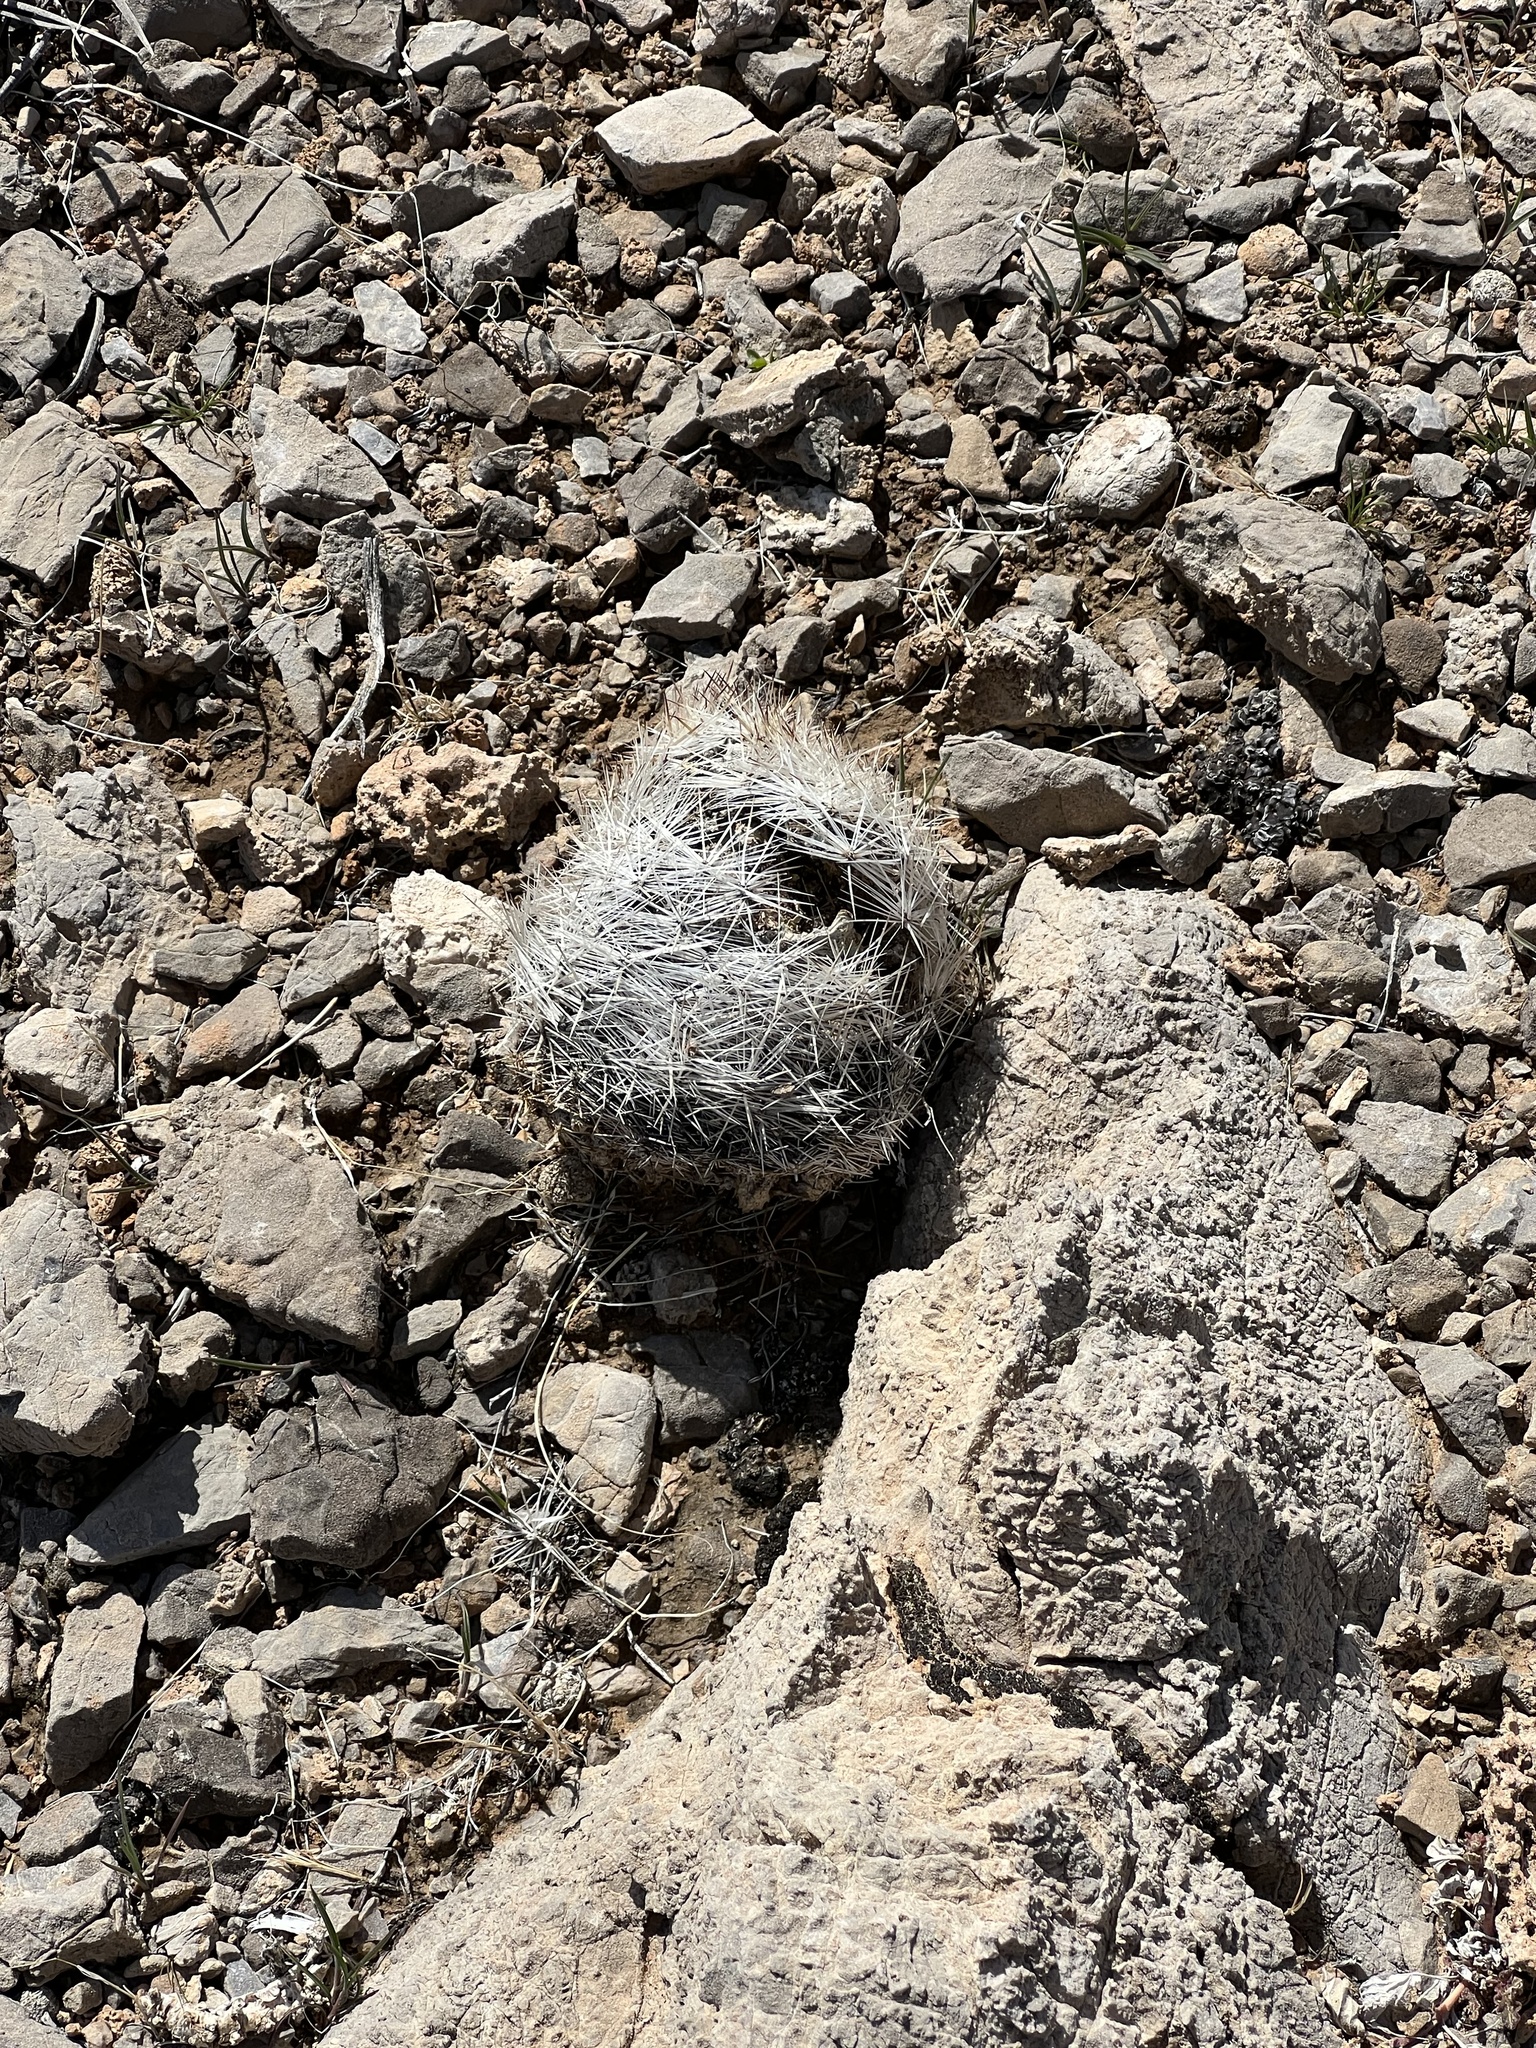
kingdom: Plantae
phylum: Tracheophyta
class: Magnoliopsida
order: Caryophyllales
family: Cactaceae
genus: Pelecyphora
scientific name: Pelecyphora dasyacantha
